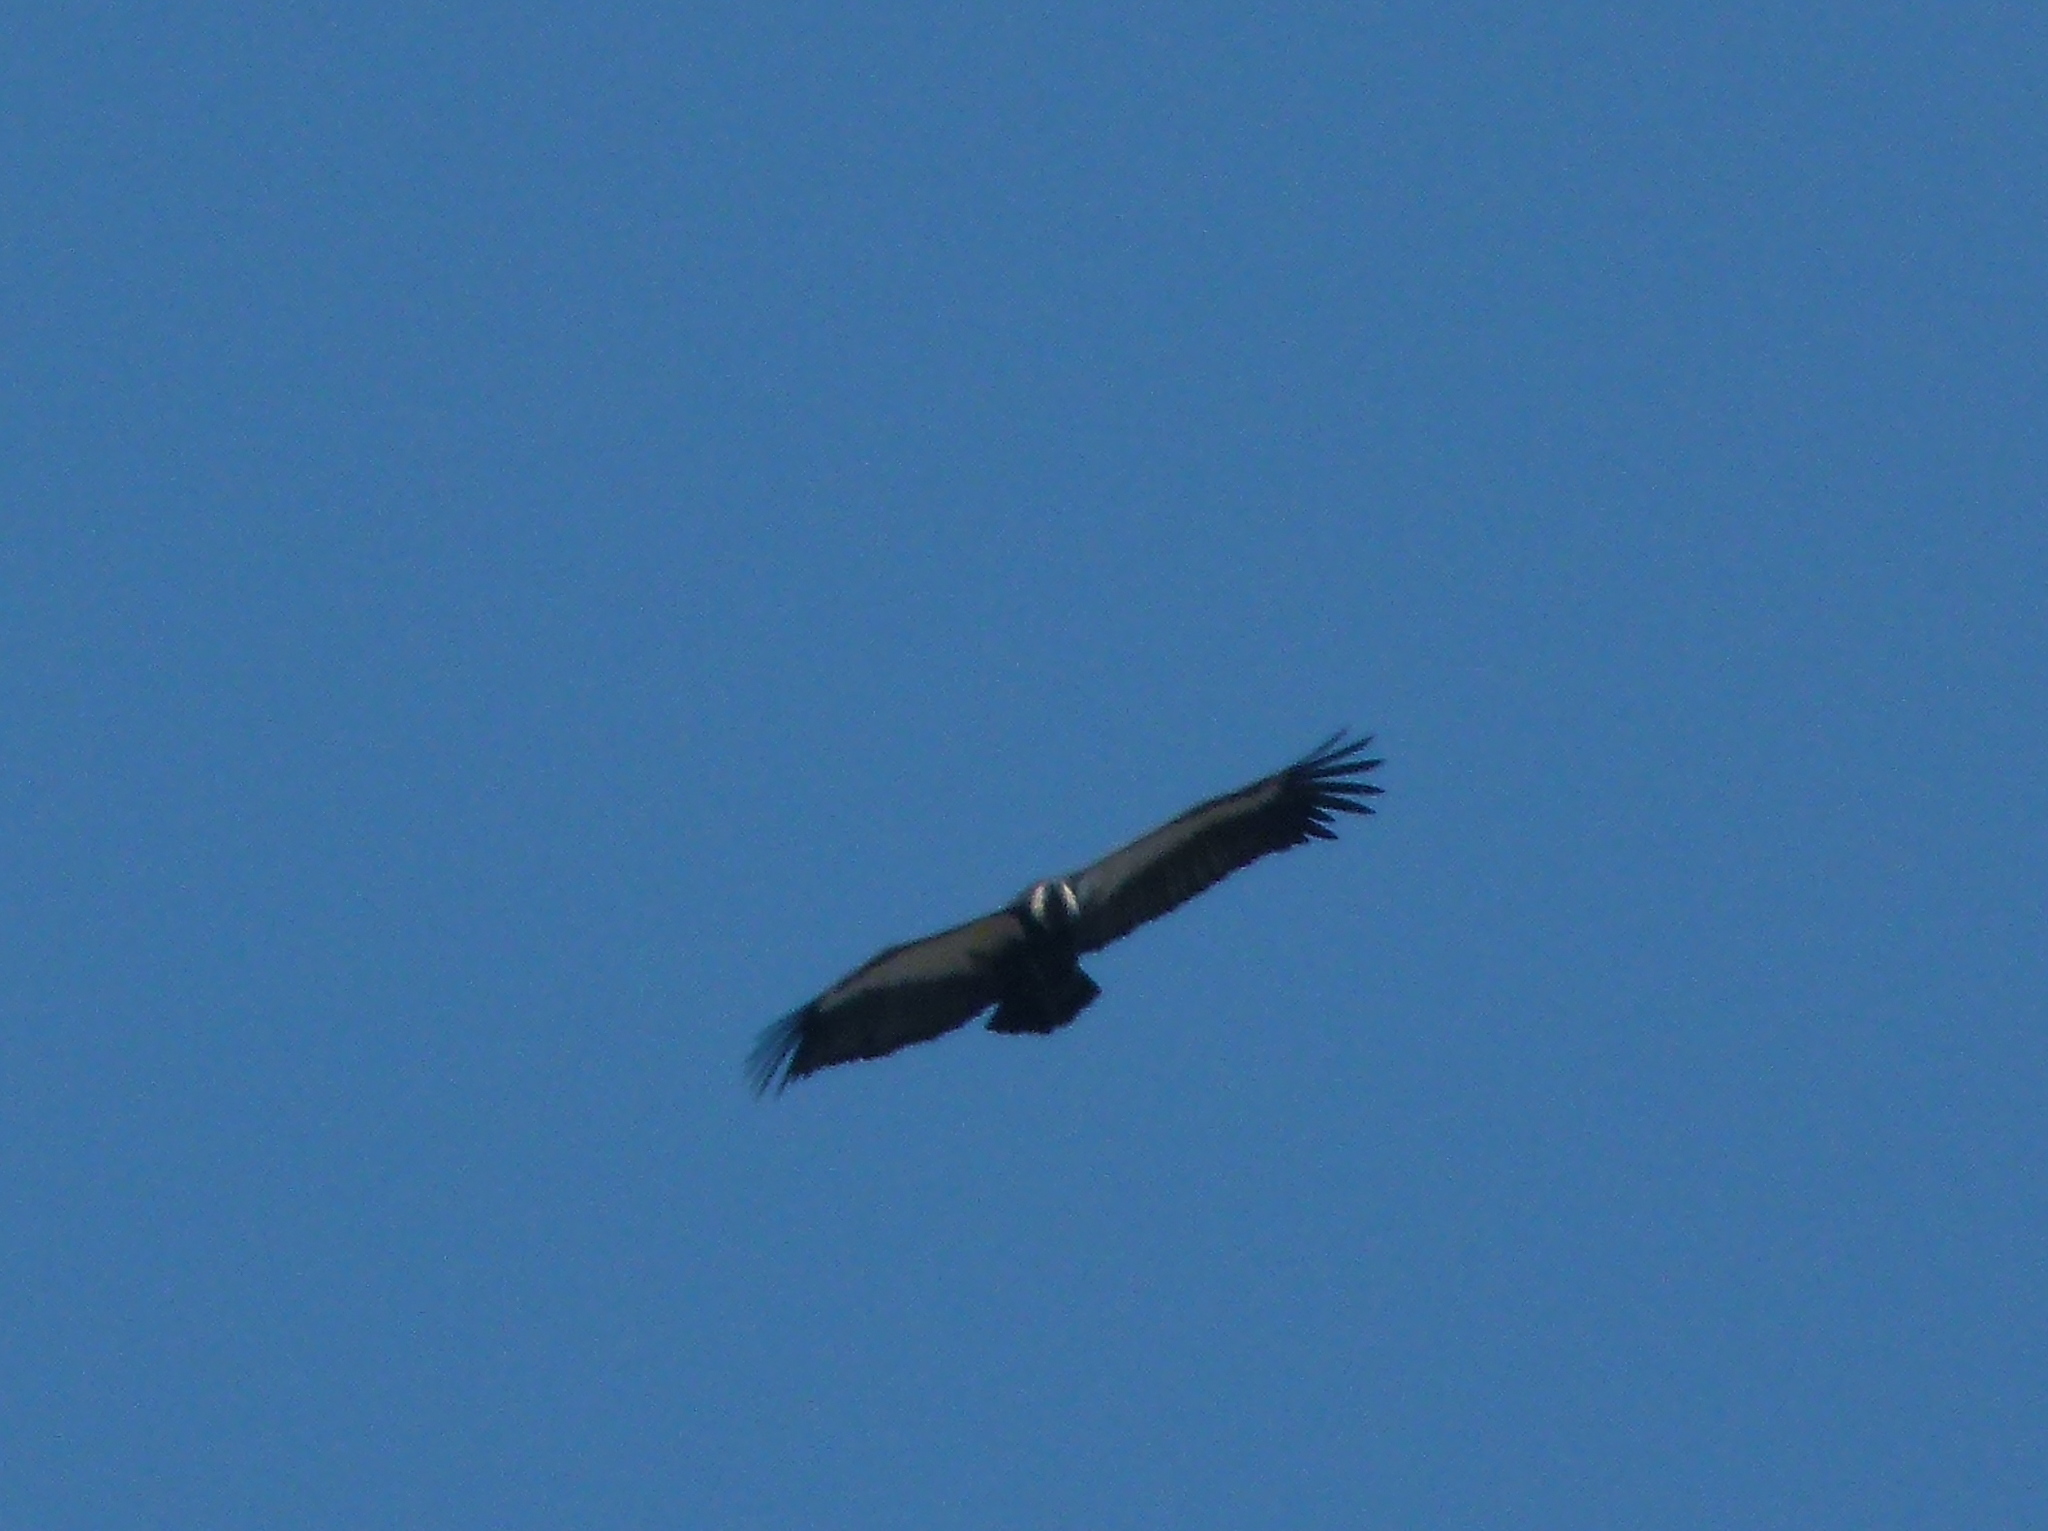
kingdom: Animalia
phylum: Chordata
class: Aves
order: Accipitriformes
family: Accipitridae
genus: Gyps
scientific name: Gyps bengalensis
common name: White-rumped vulture
